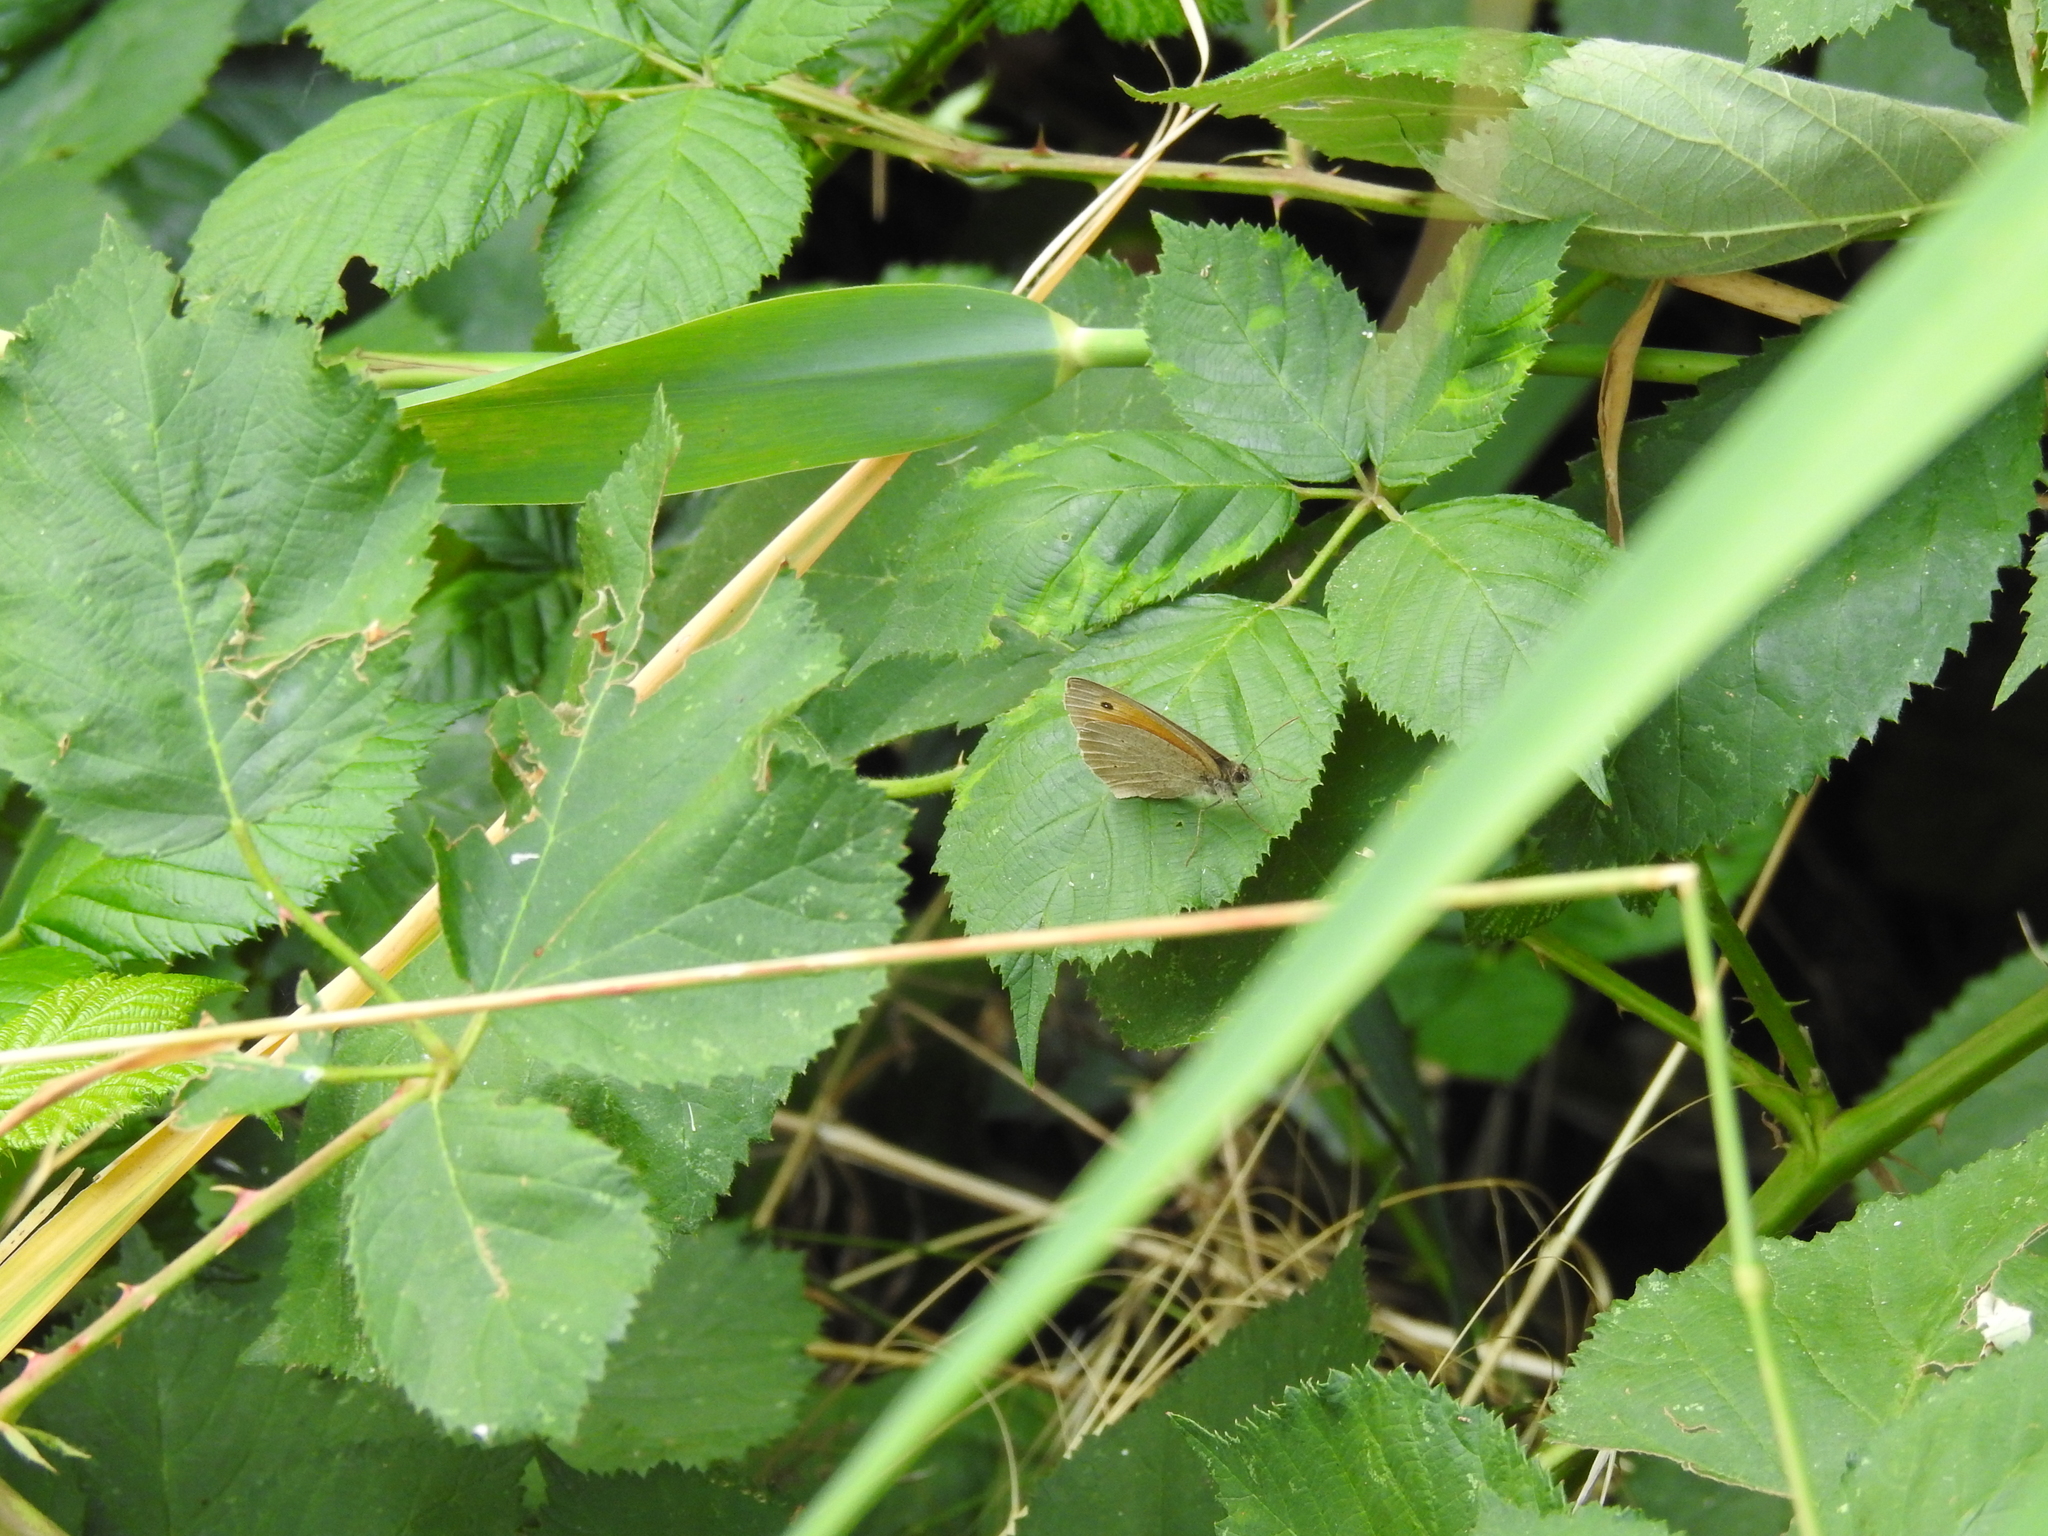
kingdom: Animalia
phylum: Arthropoda
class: Insecta
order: Lepidoptera
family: Nymphalidae
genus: Maniola
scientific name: Maniola jurtina
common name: Meadow brown
